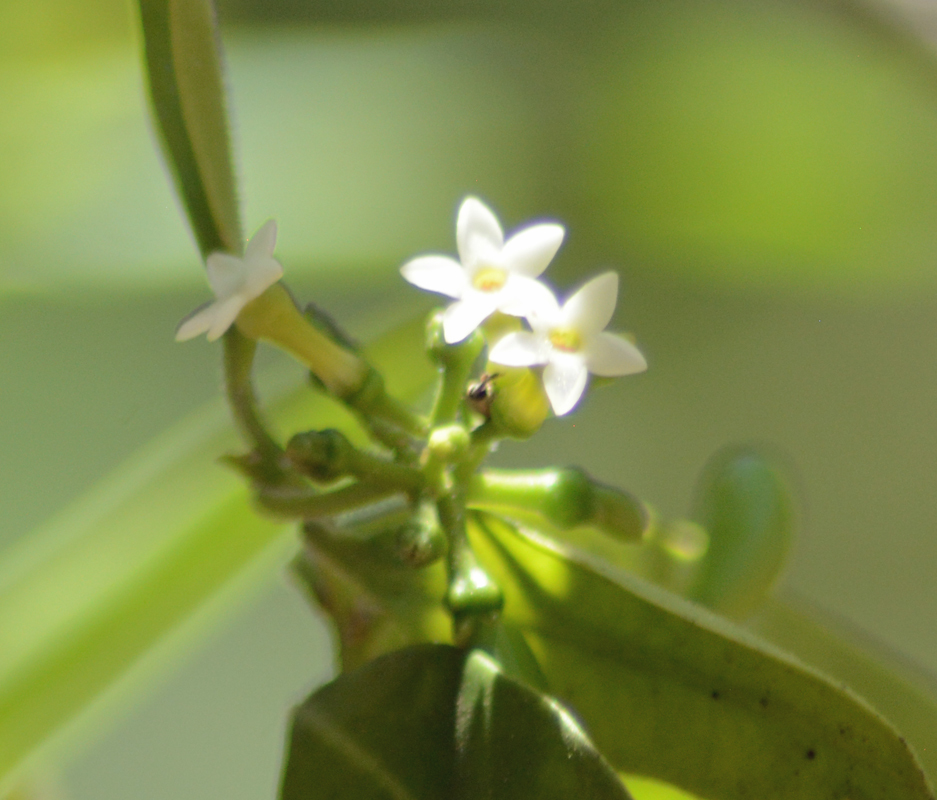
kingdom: Plantae
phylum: Tracheophyta
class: Magnoliopsida
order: Gentianales
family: Apocynaceae
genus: Vallesia
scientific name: Vallesia glabra
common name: Pearlberry
